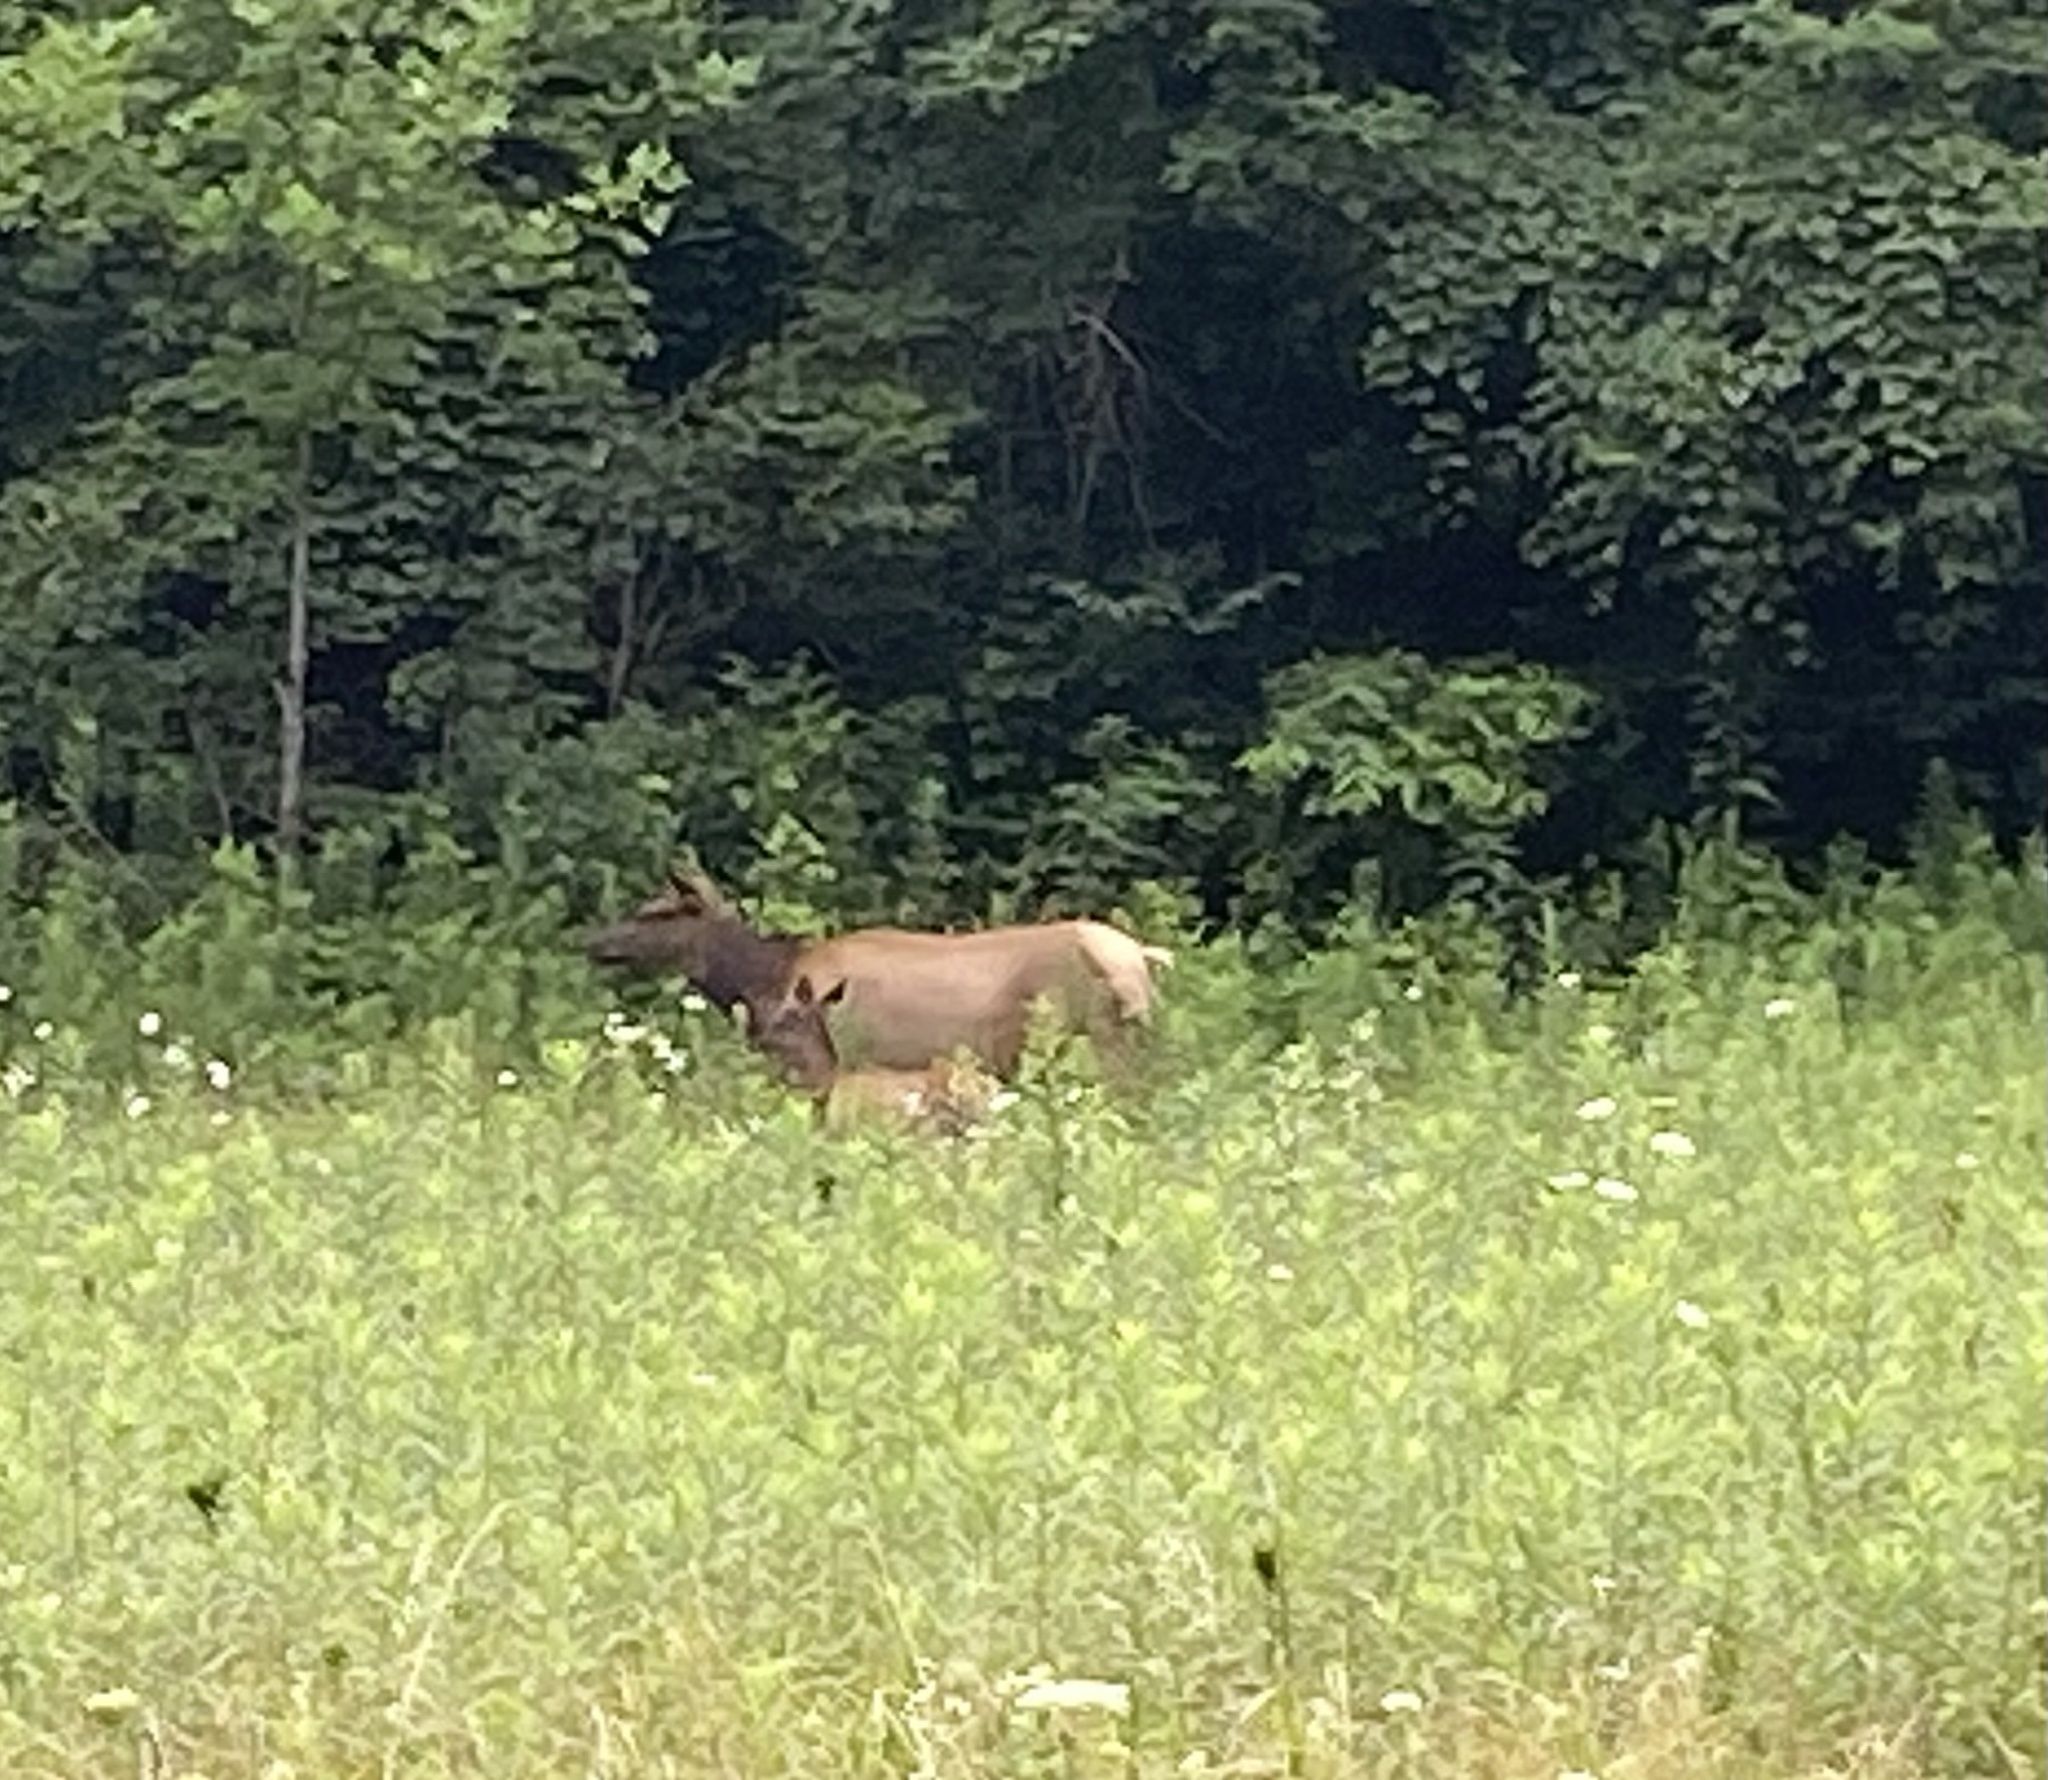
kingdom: Animalia
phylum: Chordata
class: Mammalia
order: Artiodactyla
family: Cervidae
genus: Cervus
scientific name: Cervus elaphus
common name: Red deer
